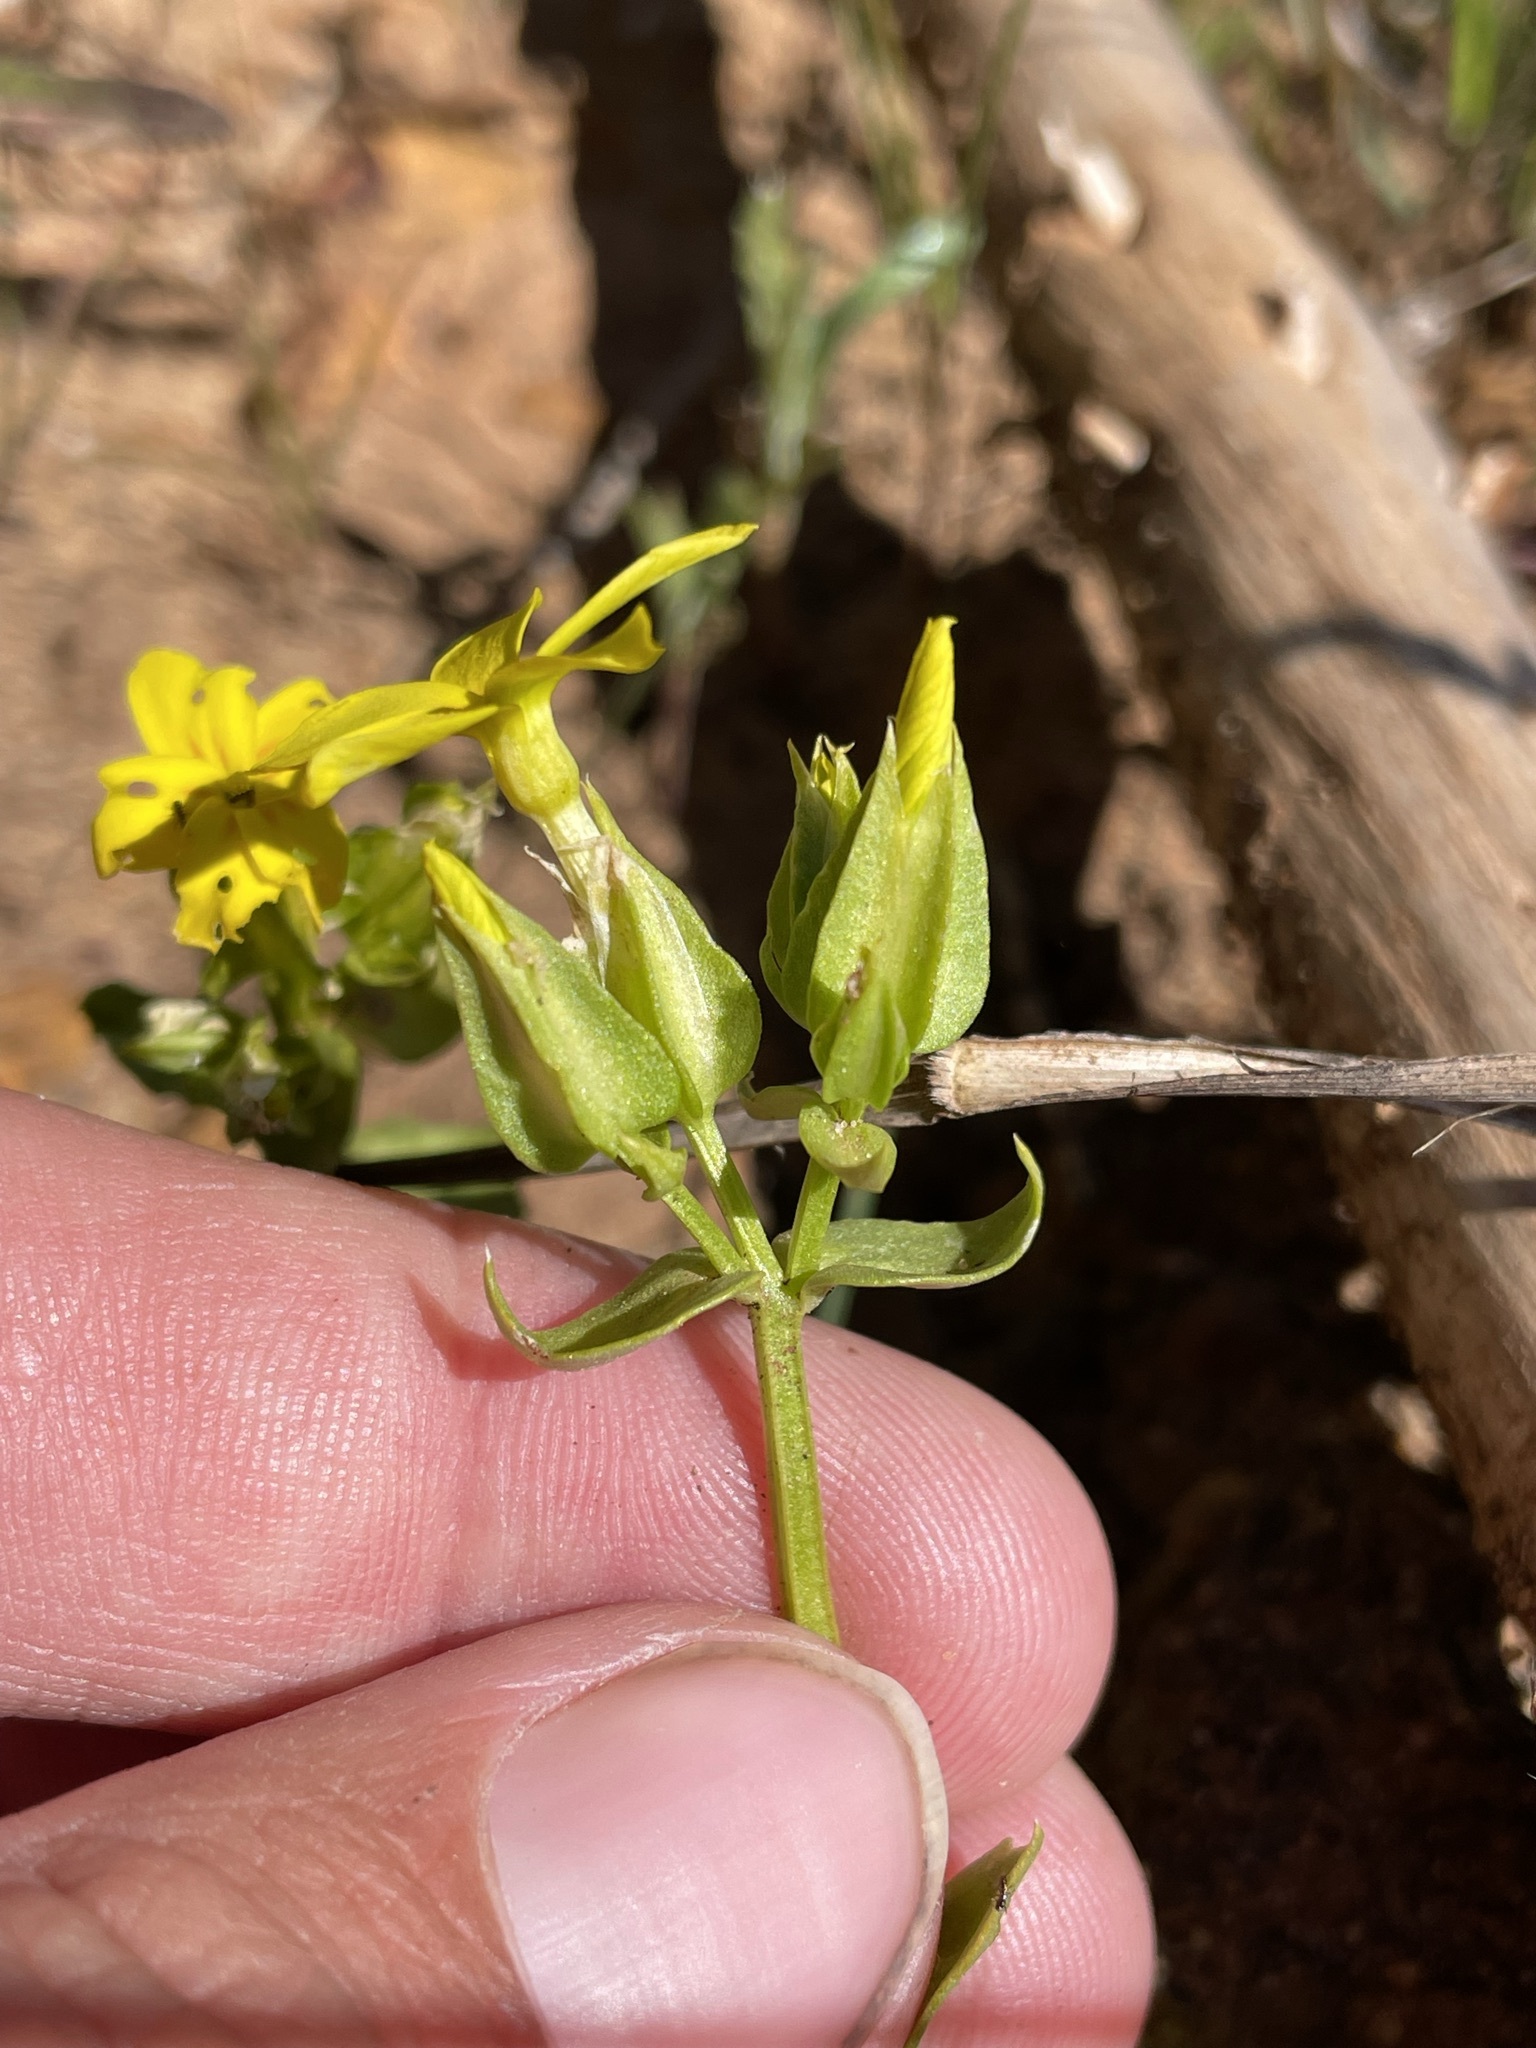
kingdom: Plantae
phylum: Tracheophyta
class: Magnoliopsida
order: Gentianales
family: Gentianaceae
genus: Sebaea
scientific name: Sebaea exacoides
